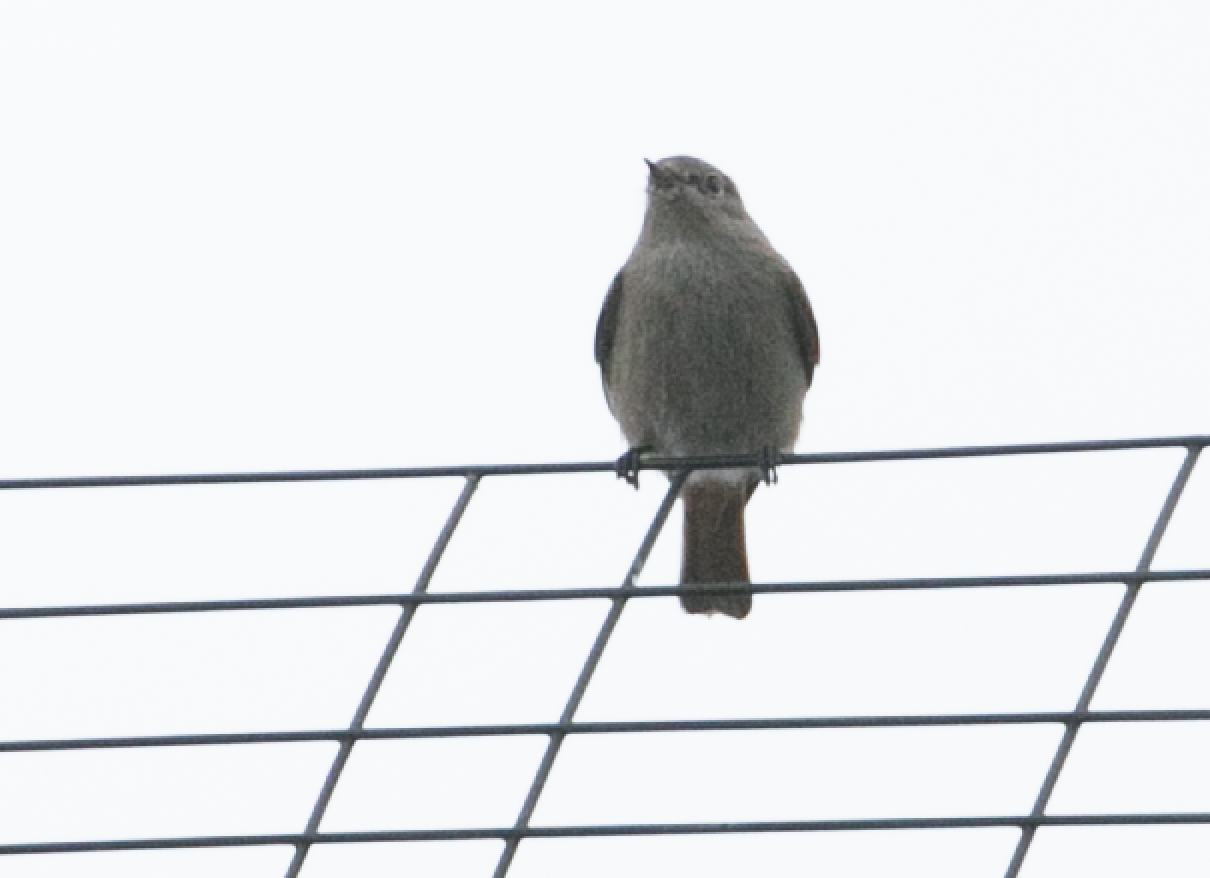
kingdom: Animalia
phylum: Chordata
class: Aves
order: Passeriformes
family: Muscicapidae
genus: Phoenicurus
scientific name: Phoenicurus ochruros
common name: Black redstart
